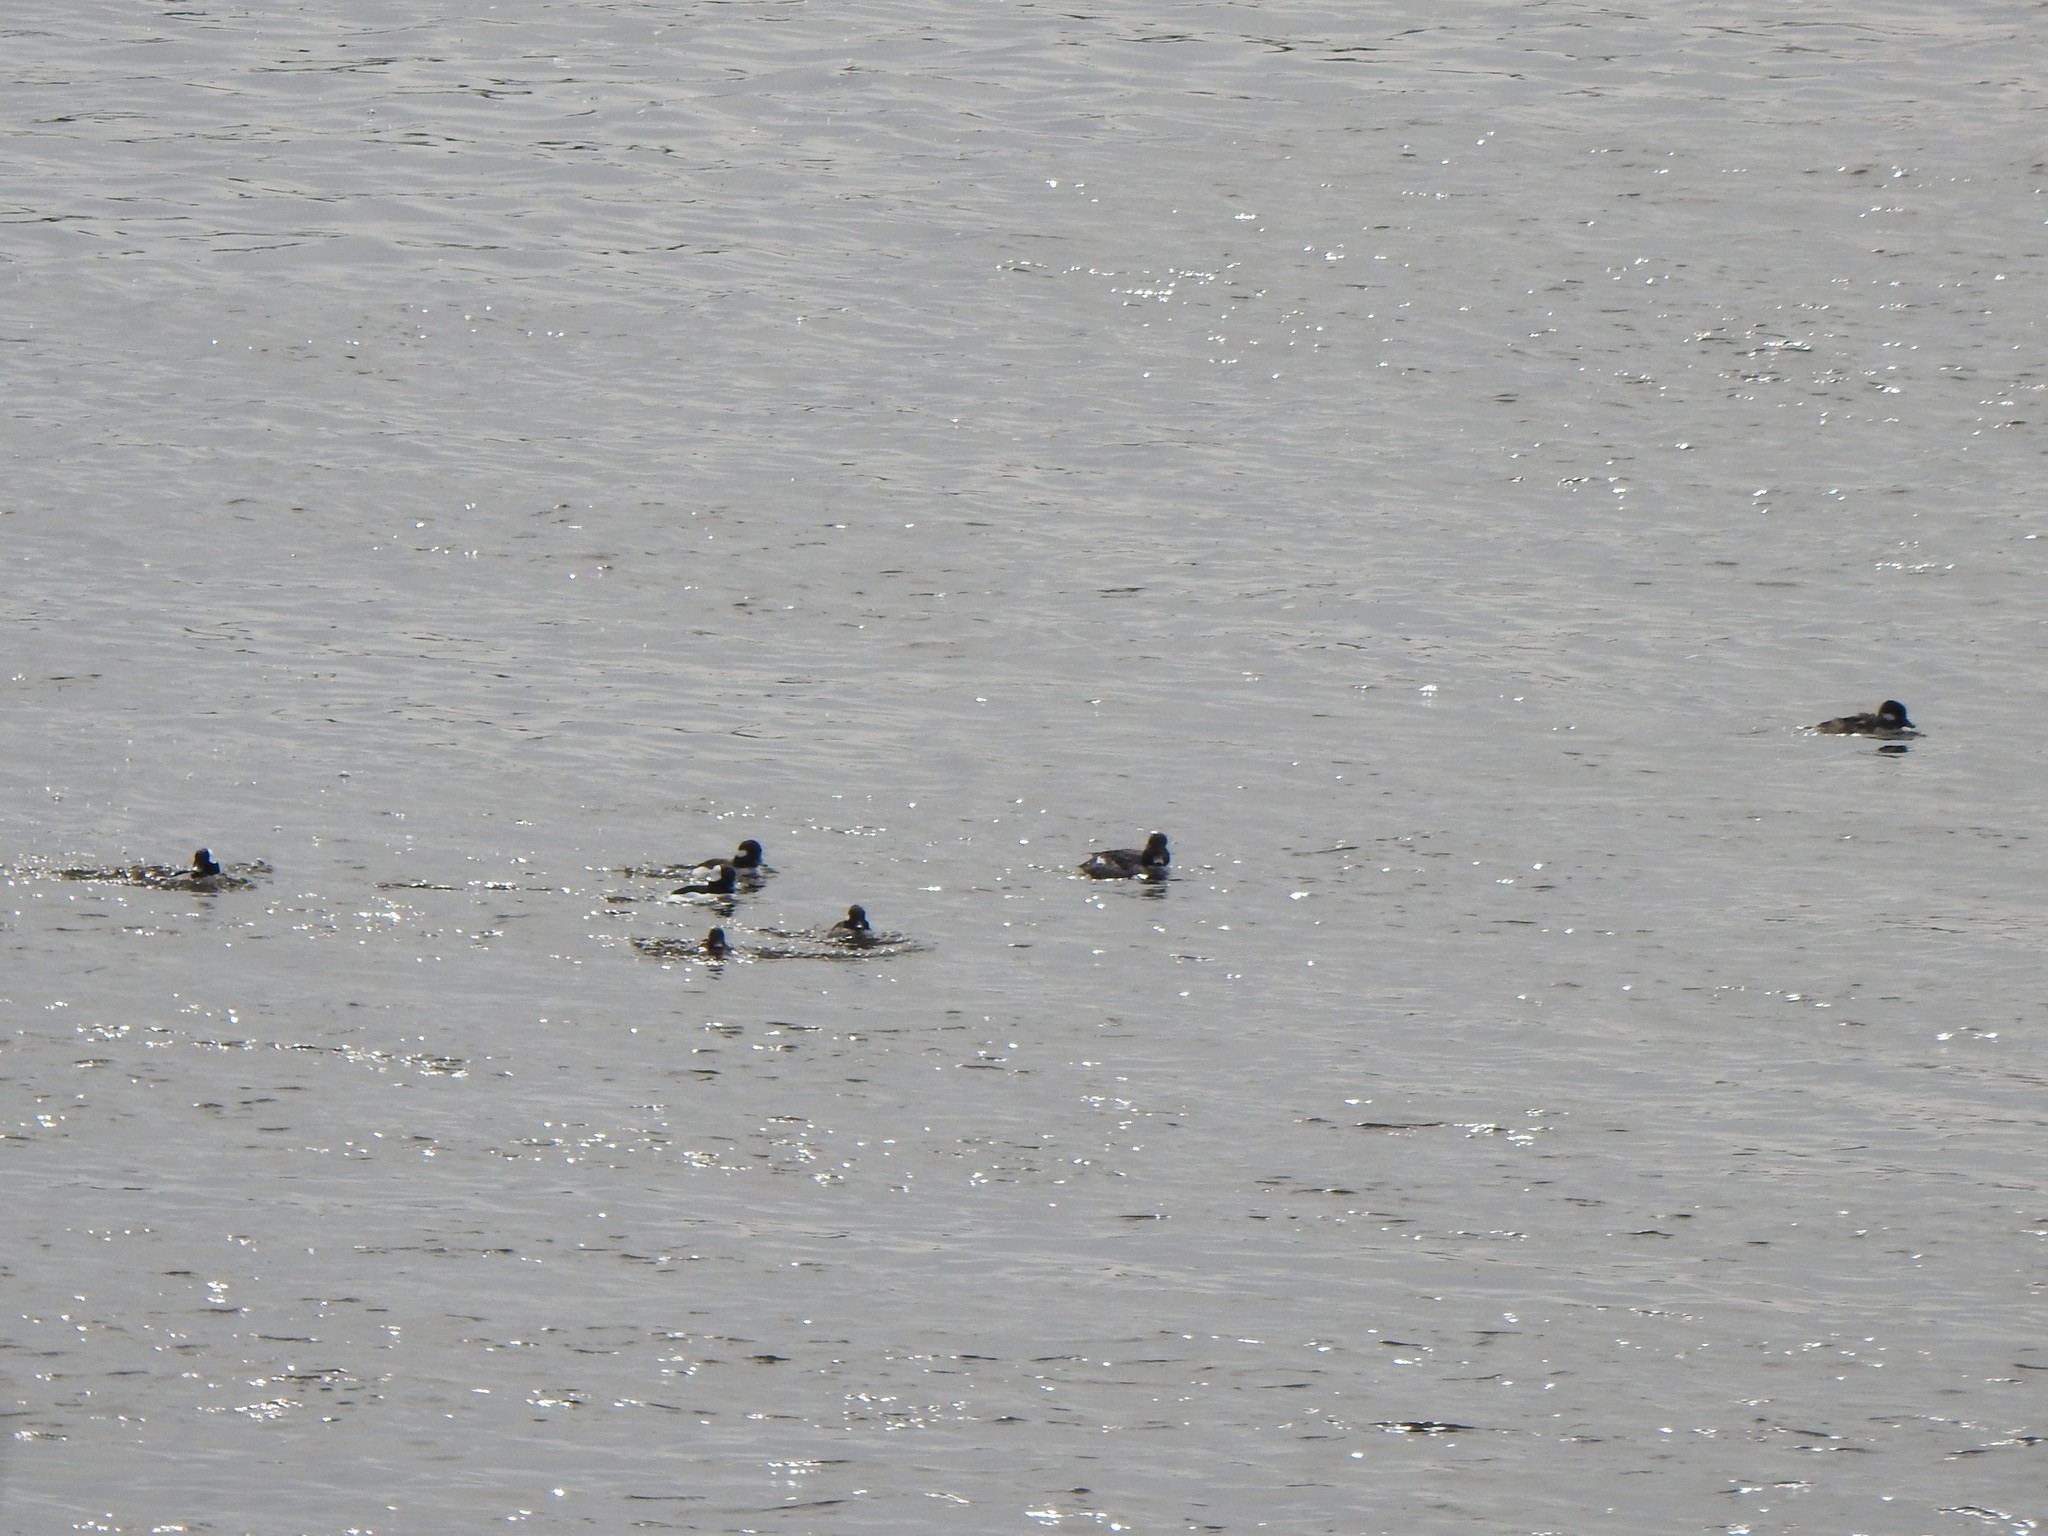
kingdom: Animalia
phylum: Chordata
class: Aves
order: Anseriformes
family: Anatidae
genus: Bucephala
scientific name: Bucephala albeola
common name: Bufflehead
